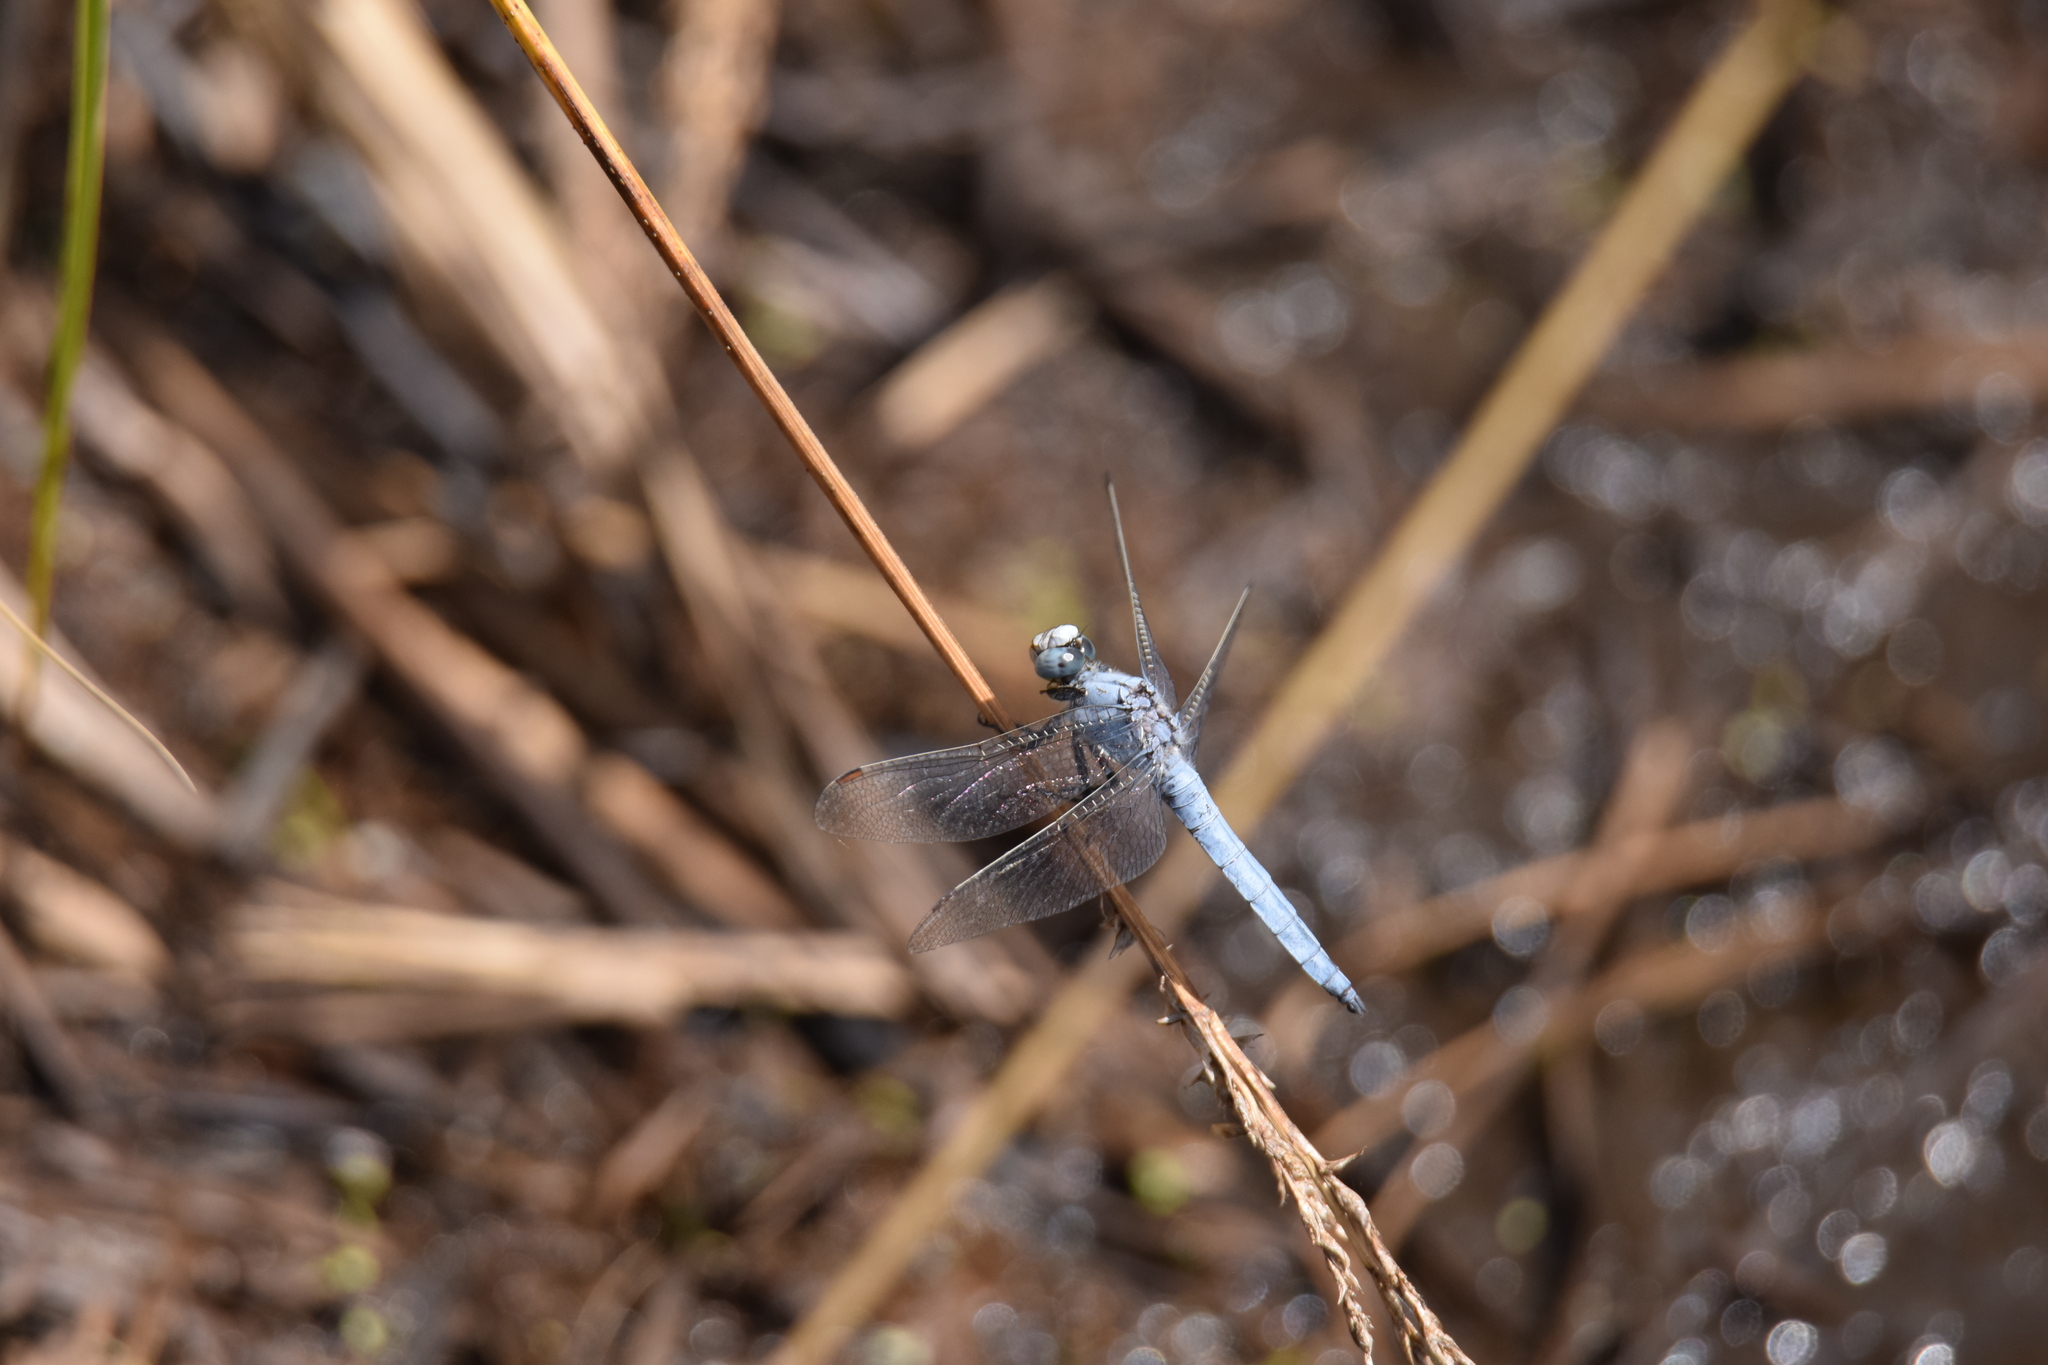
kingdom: Animalia
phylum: Arthropoda
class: Insecta
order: Odonata
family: Libellulidae
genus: Orthetrum
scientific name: Orthetrum brunneum
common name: Southern skimmer
